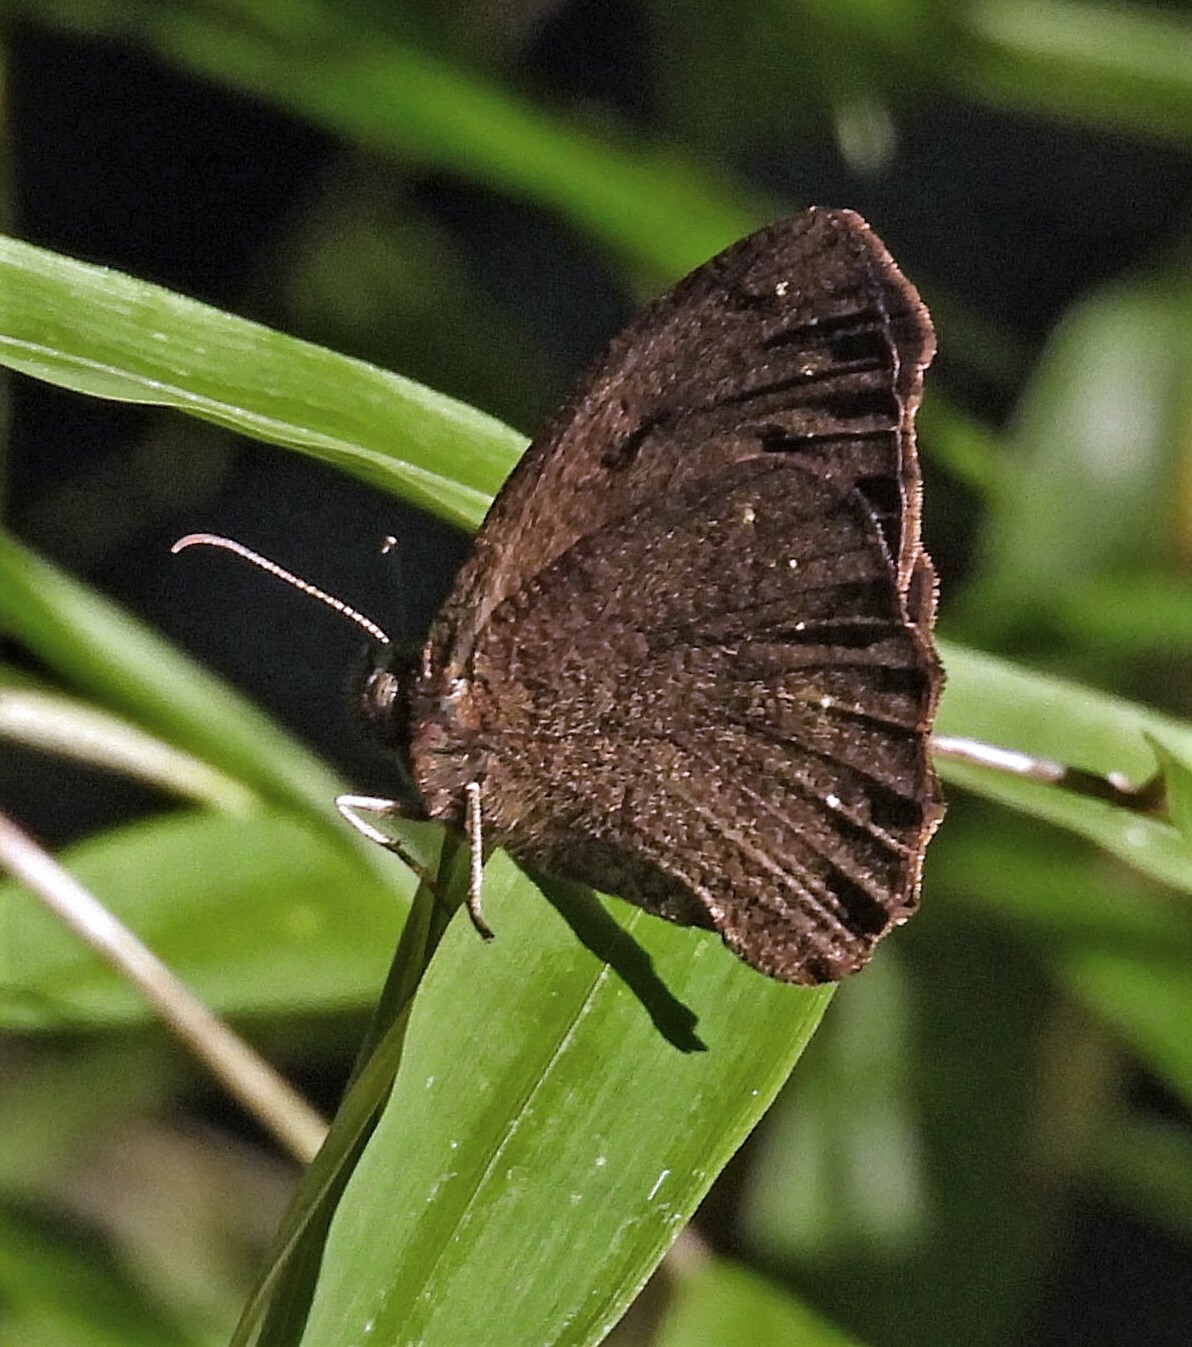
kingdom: Animalia
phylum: Arthropoda
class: Insecta
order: Lepidoptera
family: Nymphalidae
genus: Forsterinaria
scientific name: Forsterinaria necys
